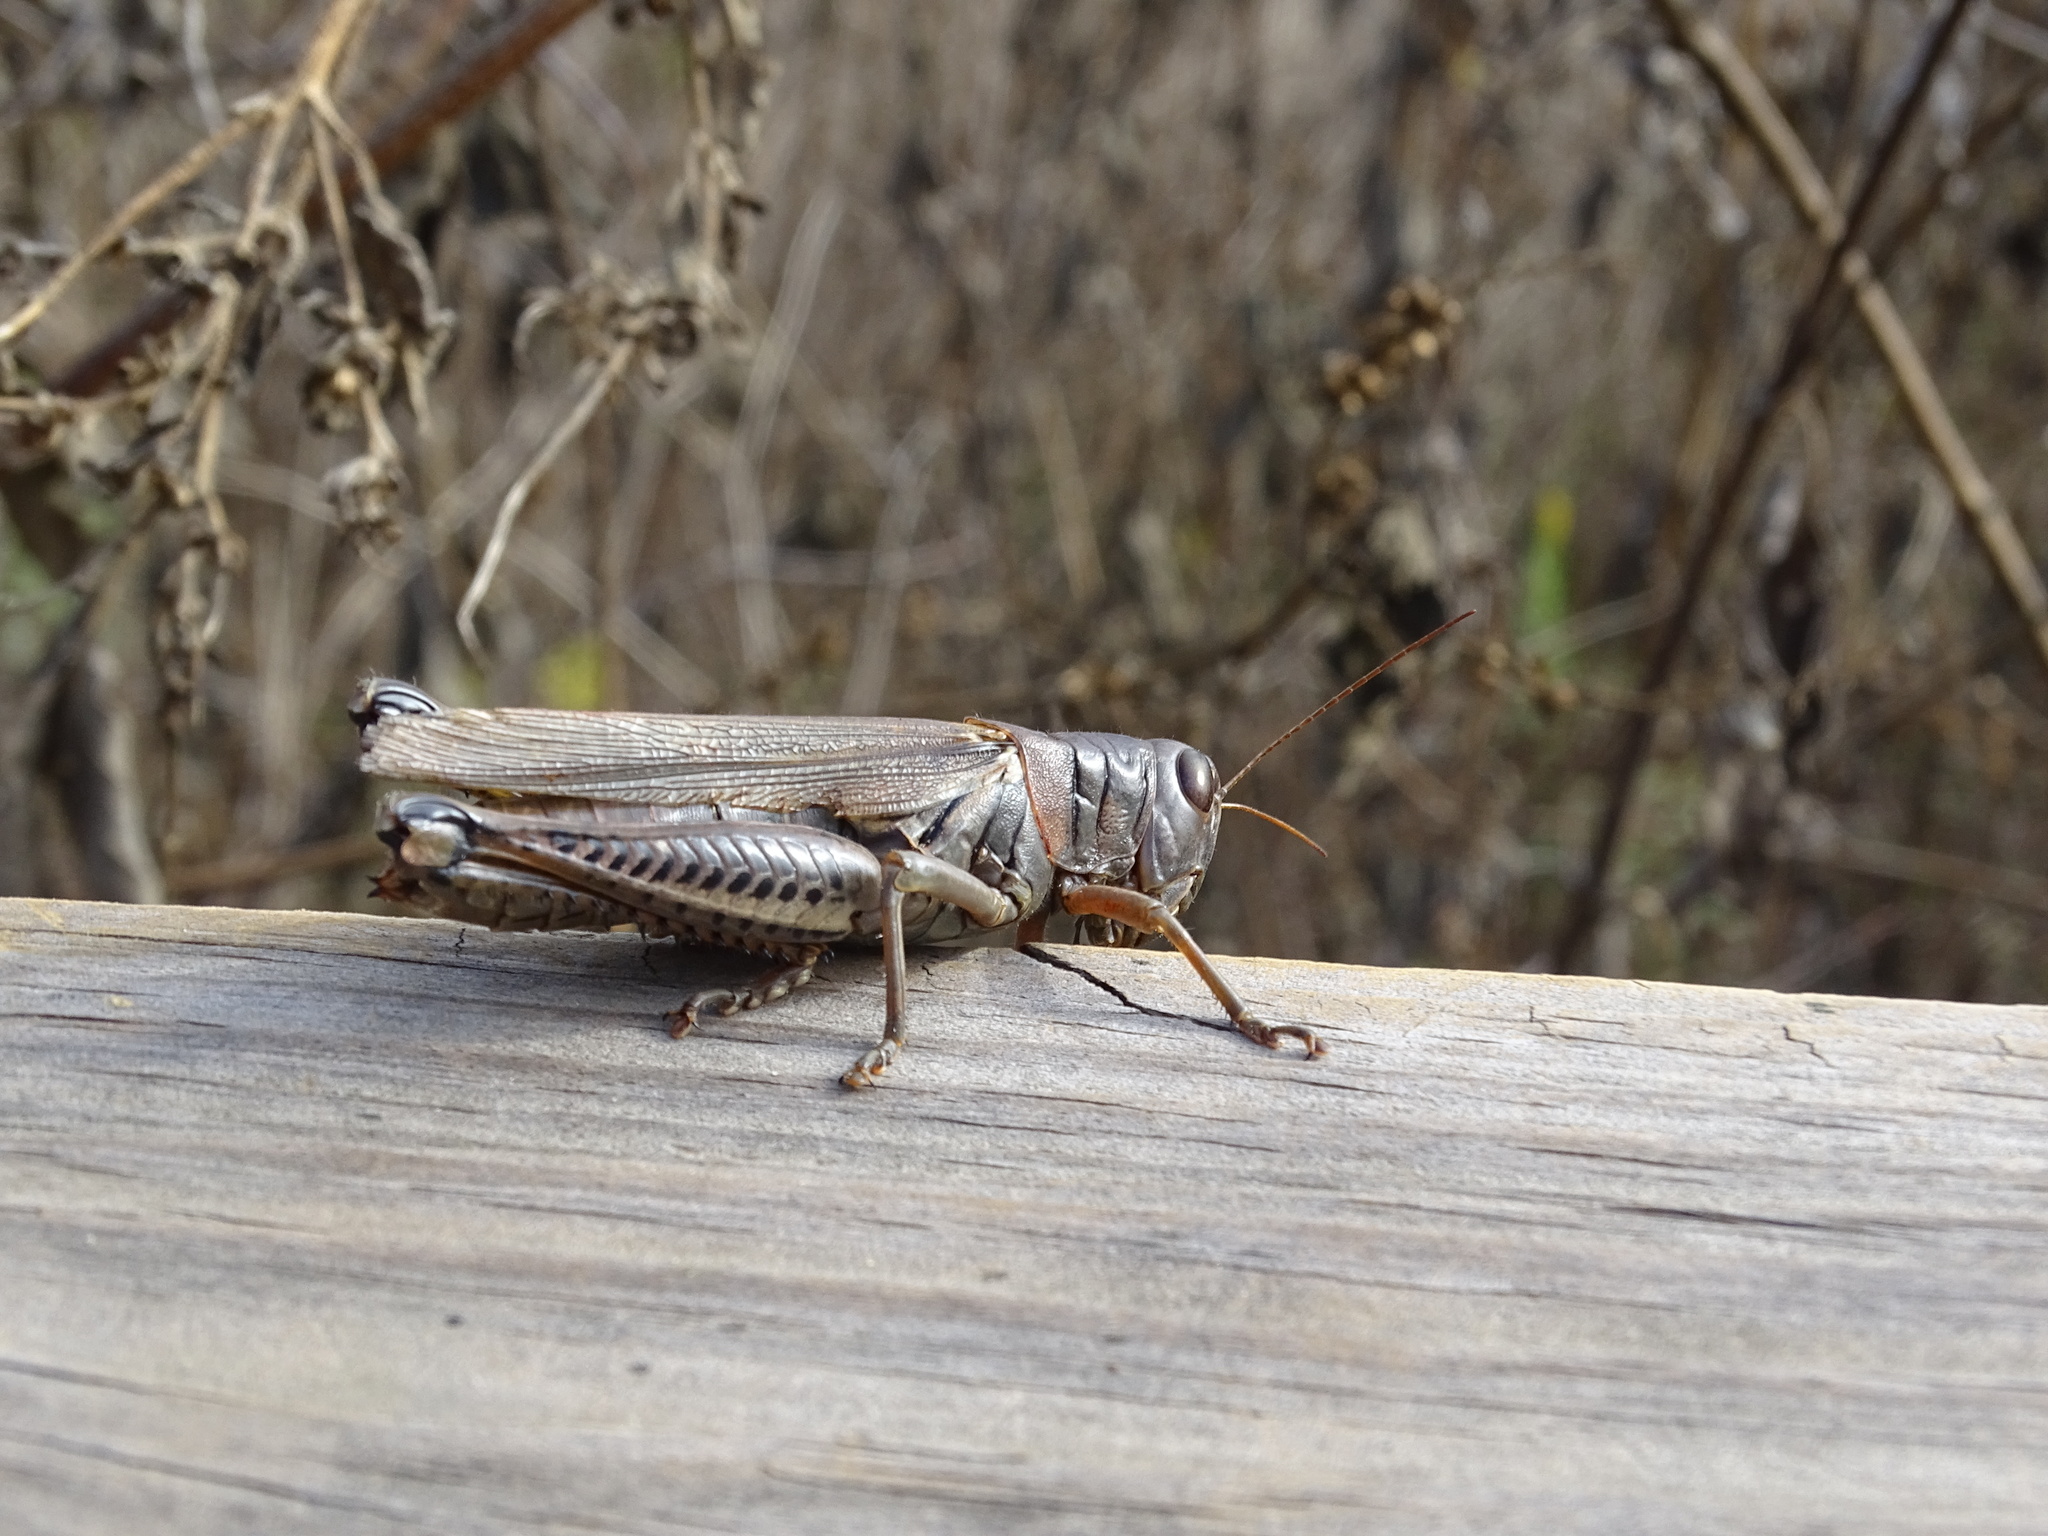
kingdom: Animalia
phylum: Arthropoda
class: Insecta
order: Orthoptera
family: Acrididae
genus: Melanoplus
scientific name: Melanoplus differentialis
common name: Differential grasshopper
